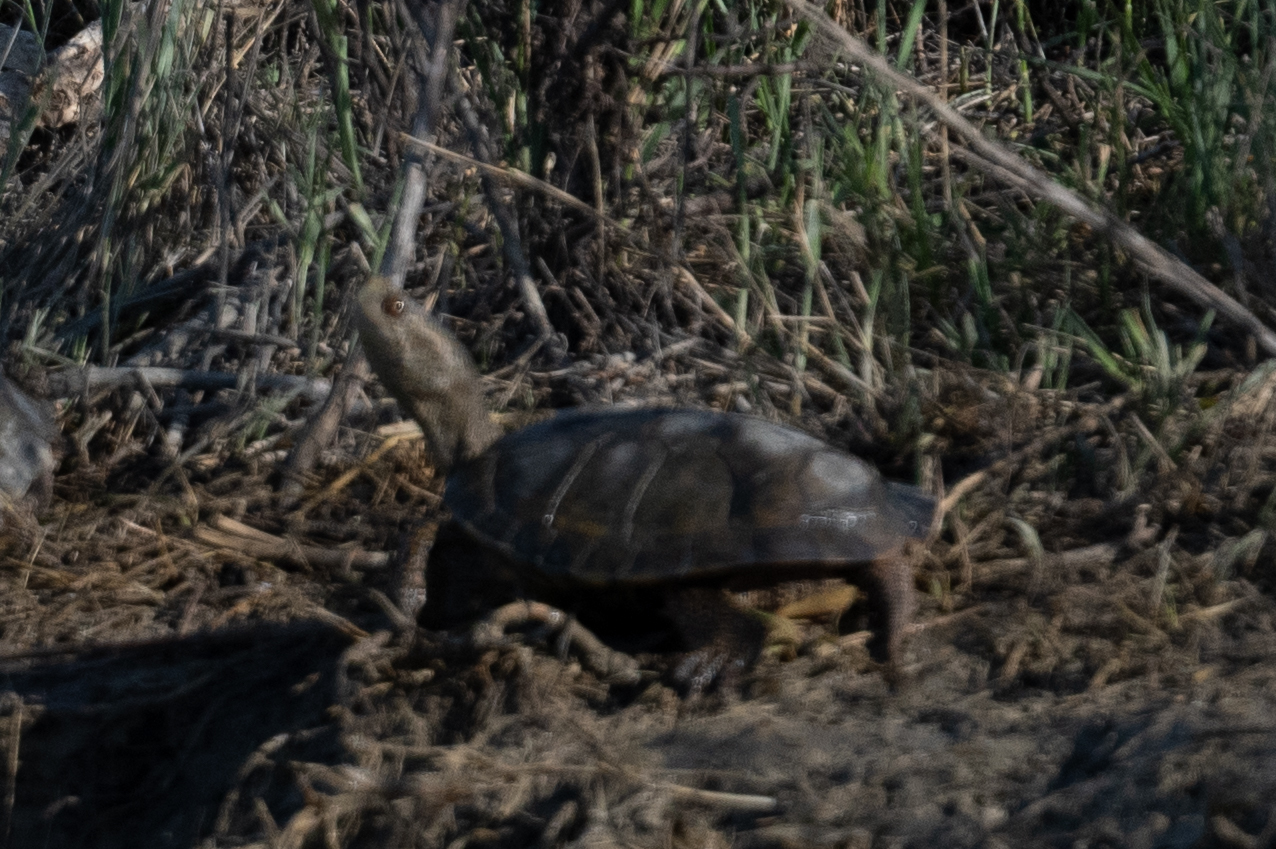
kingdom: Animalia
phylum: Chordata
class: Testudines
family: Emydidae
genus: Actinemys
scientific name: Actinemys marmorata
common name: Western pond turtle
